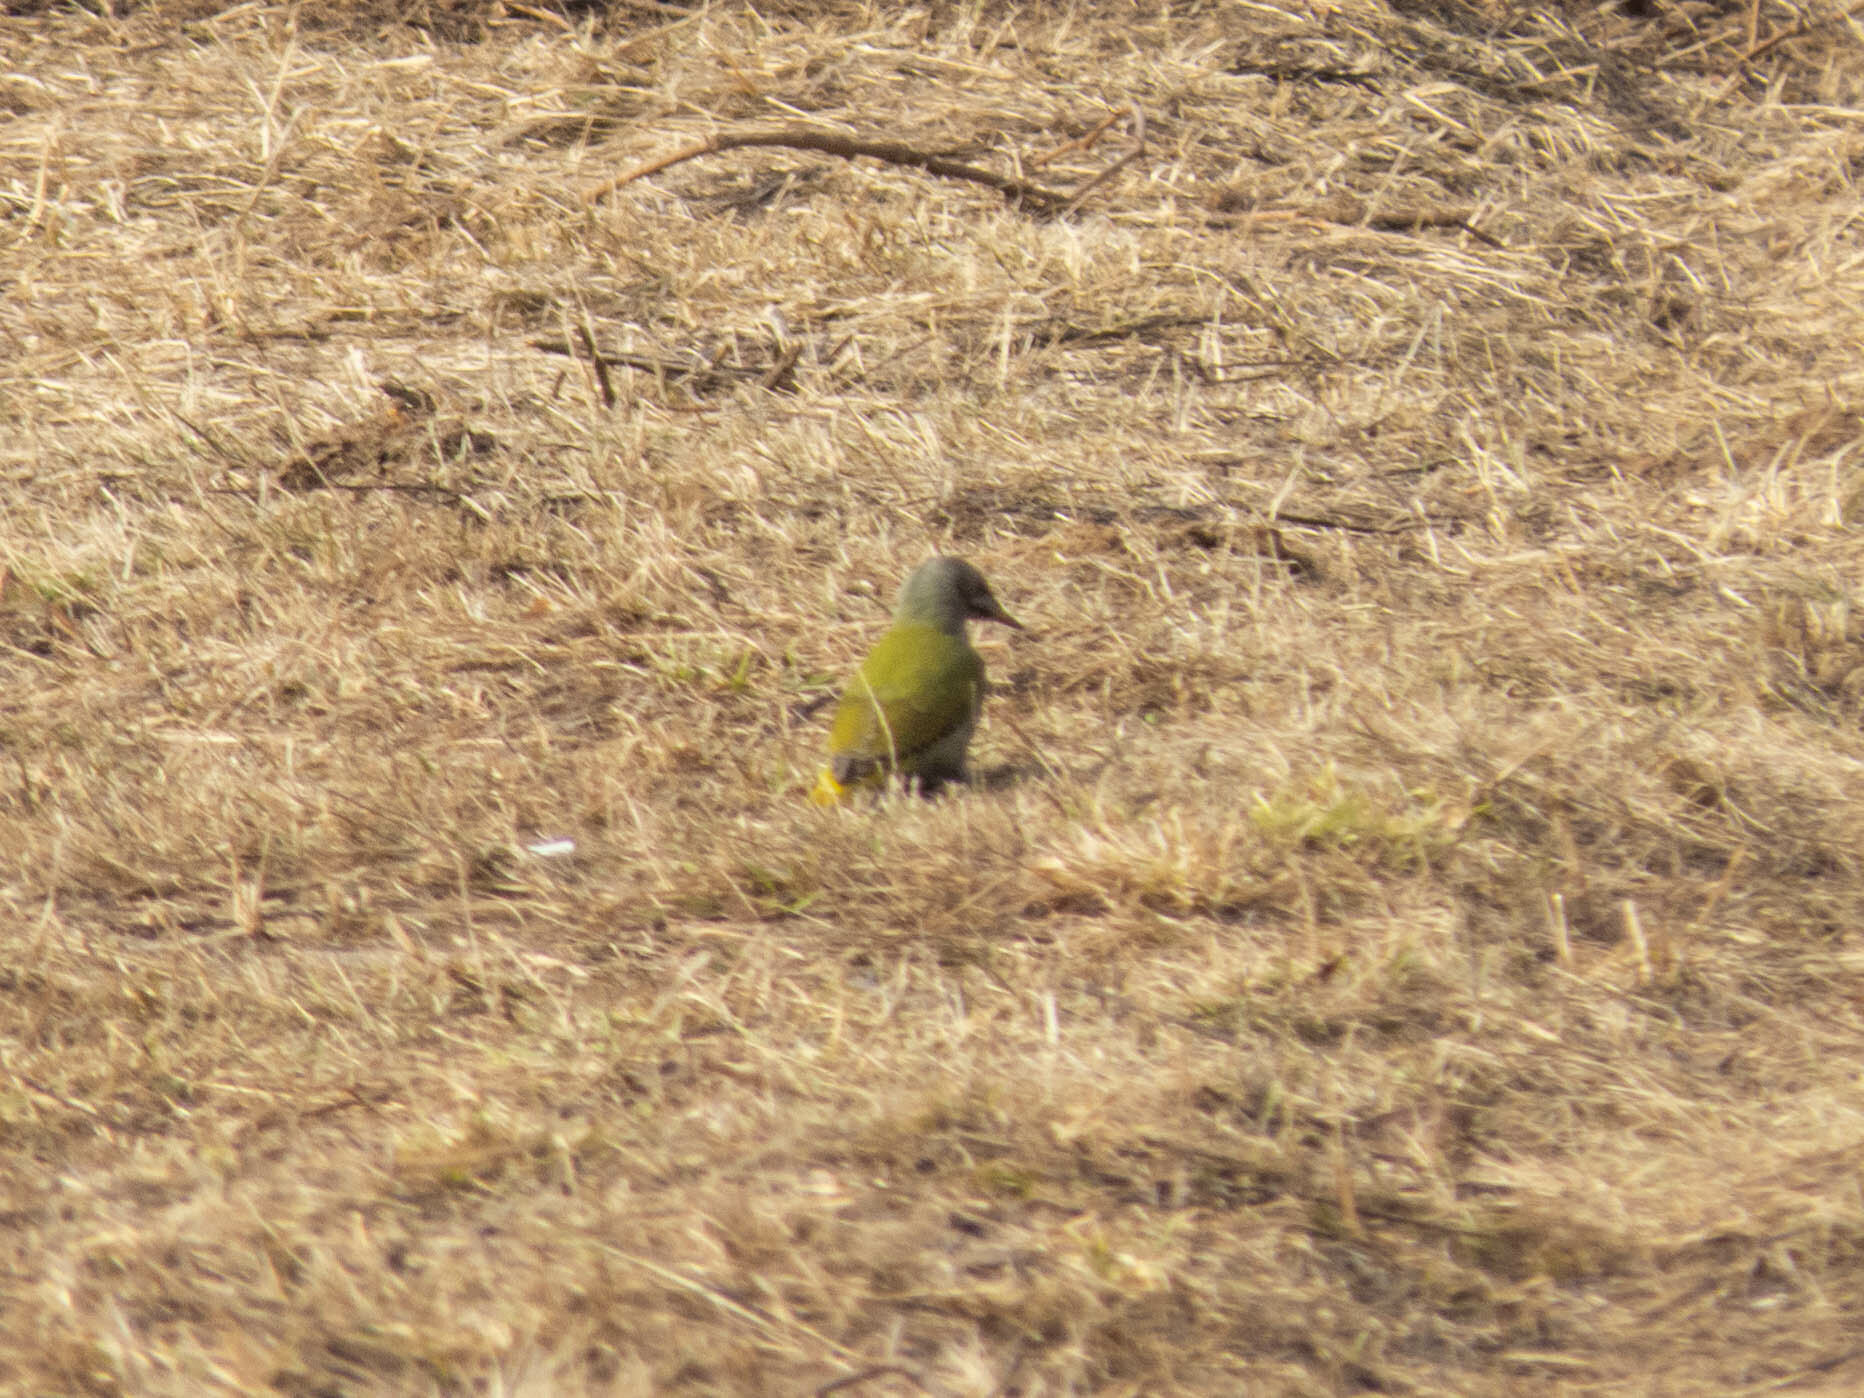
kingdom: Animalia
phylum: Chordata
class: Aves
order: Piciformes
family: Picidae
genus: Picus
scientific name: Picus canus
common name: Grey-headed woodpecker
